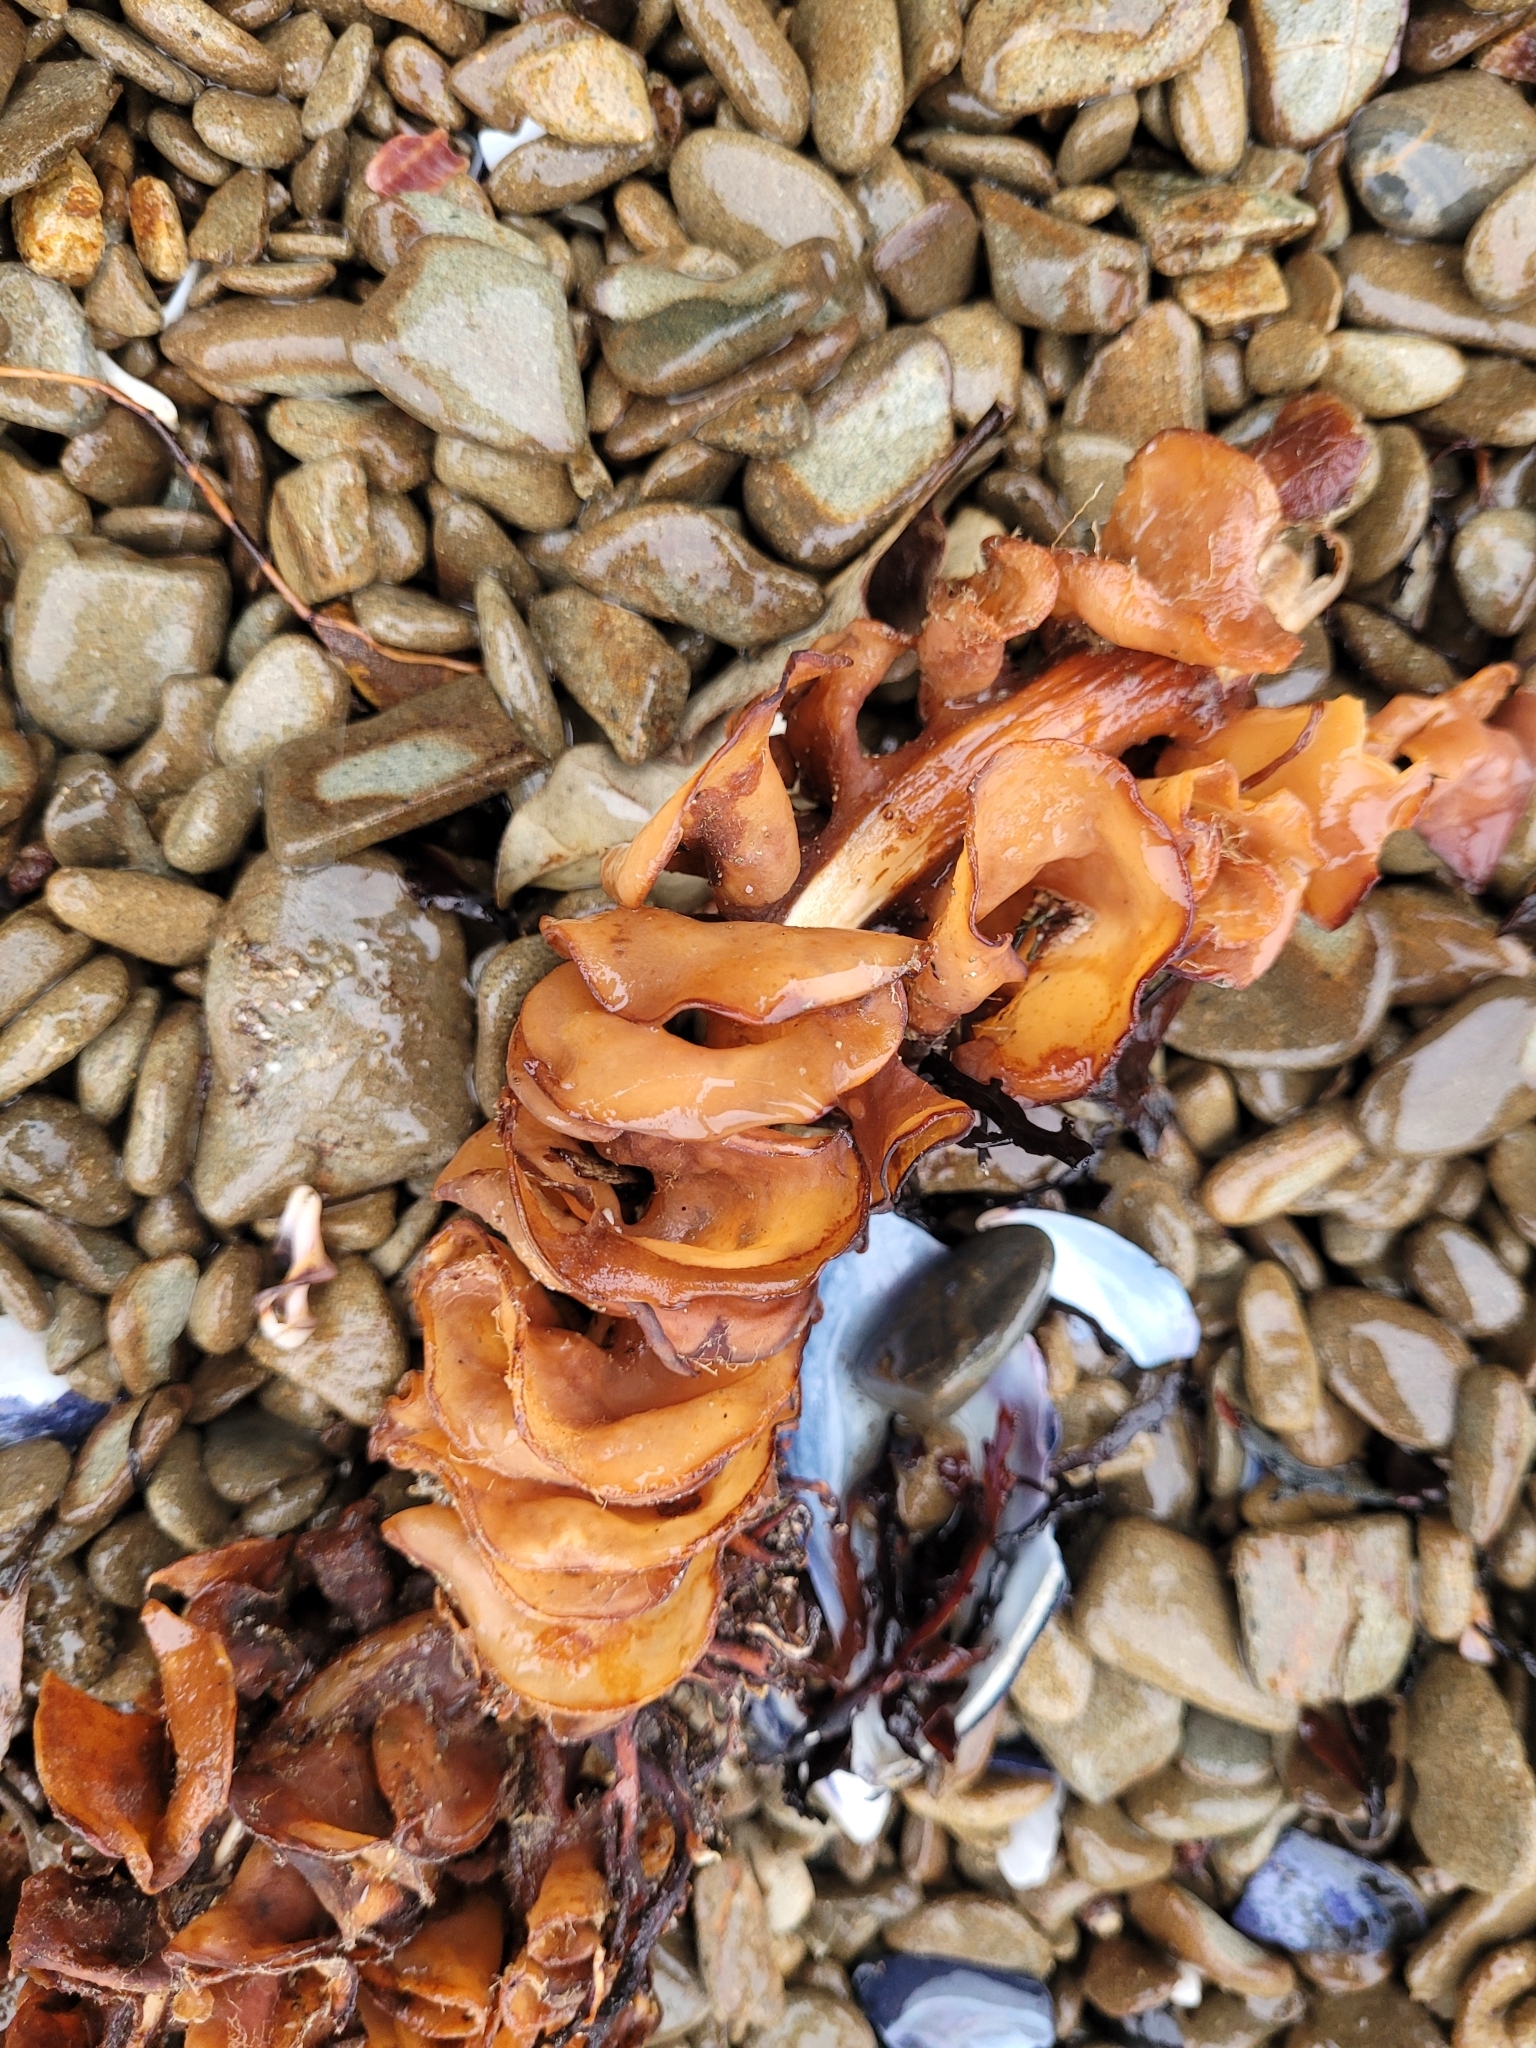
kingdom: Chromista
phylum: Ochrophyta
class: Phaeophyceae
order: Laminariales
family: Alariaceae
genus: Undaria
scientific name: Undaria pinnatifida
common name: Asian kelp
